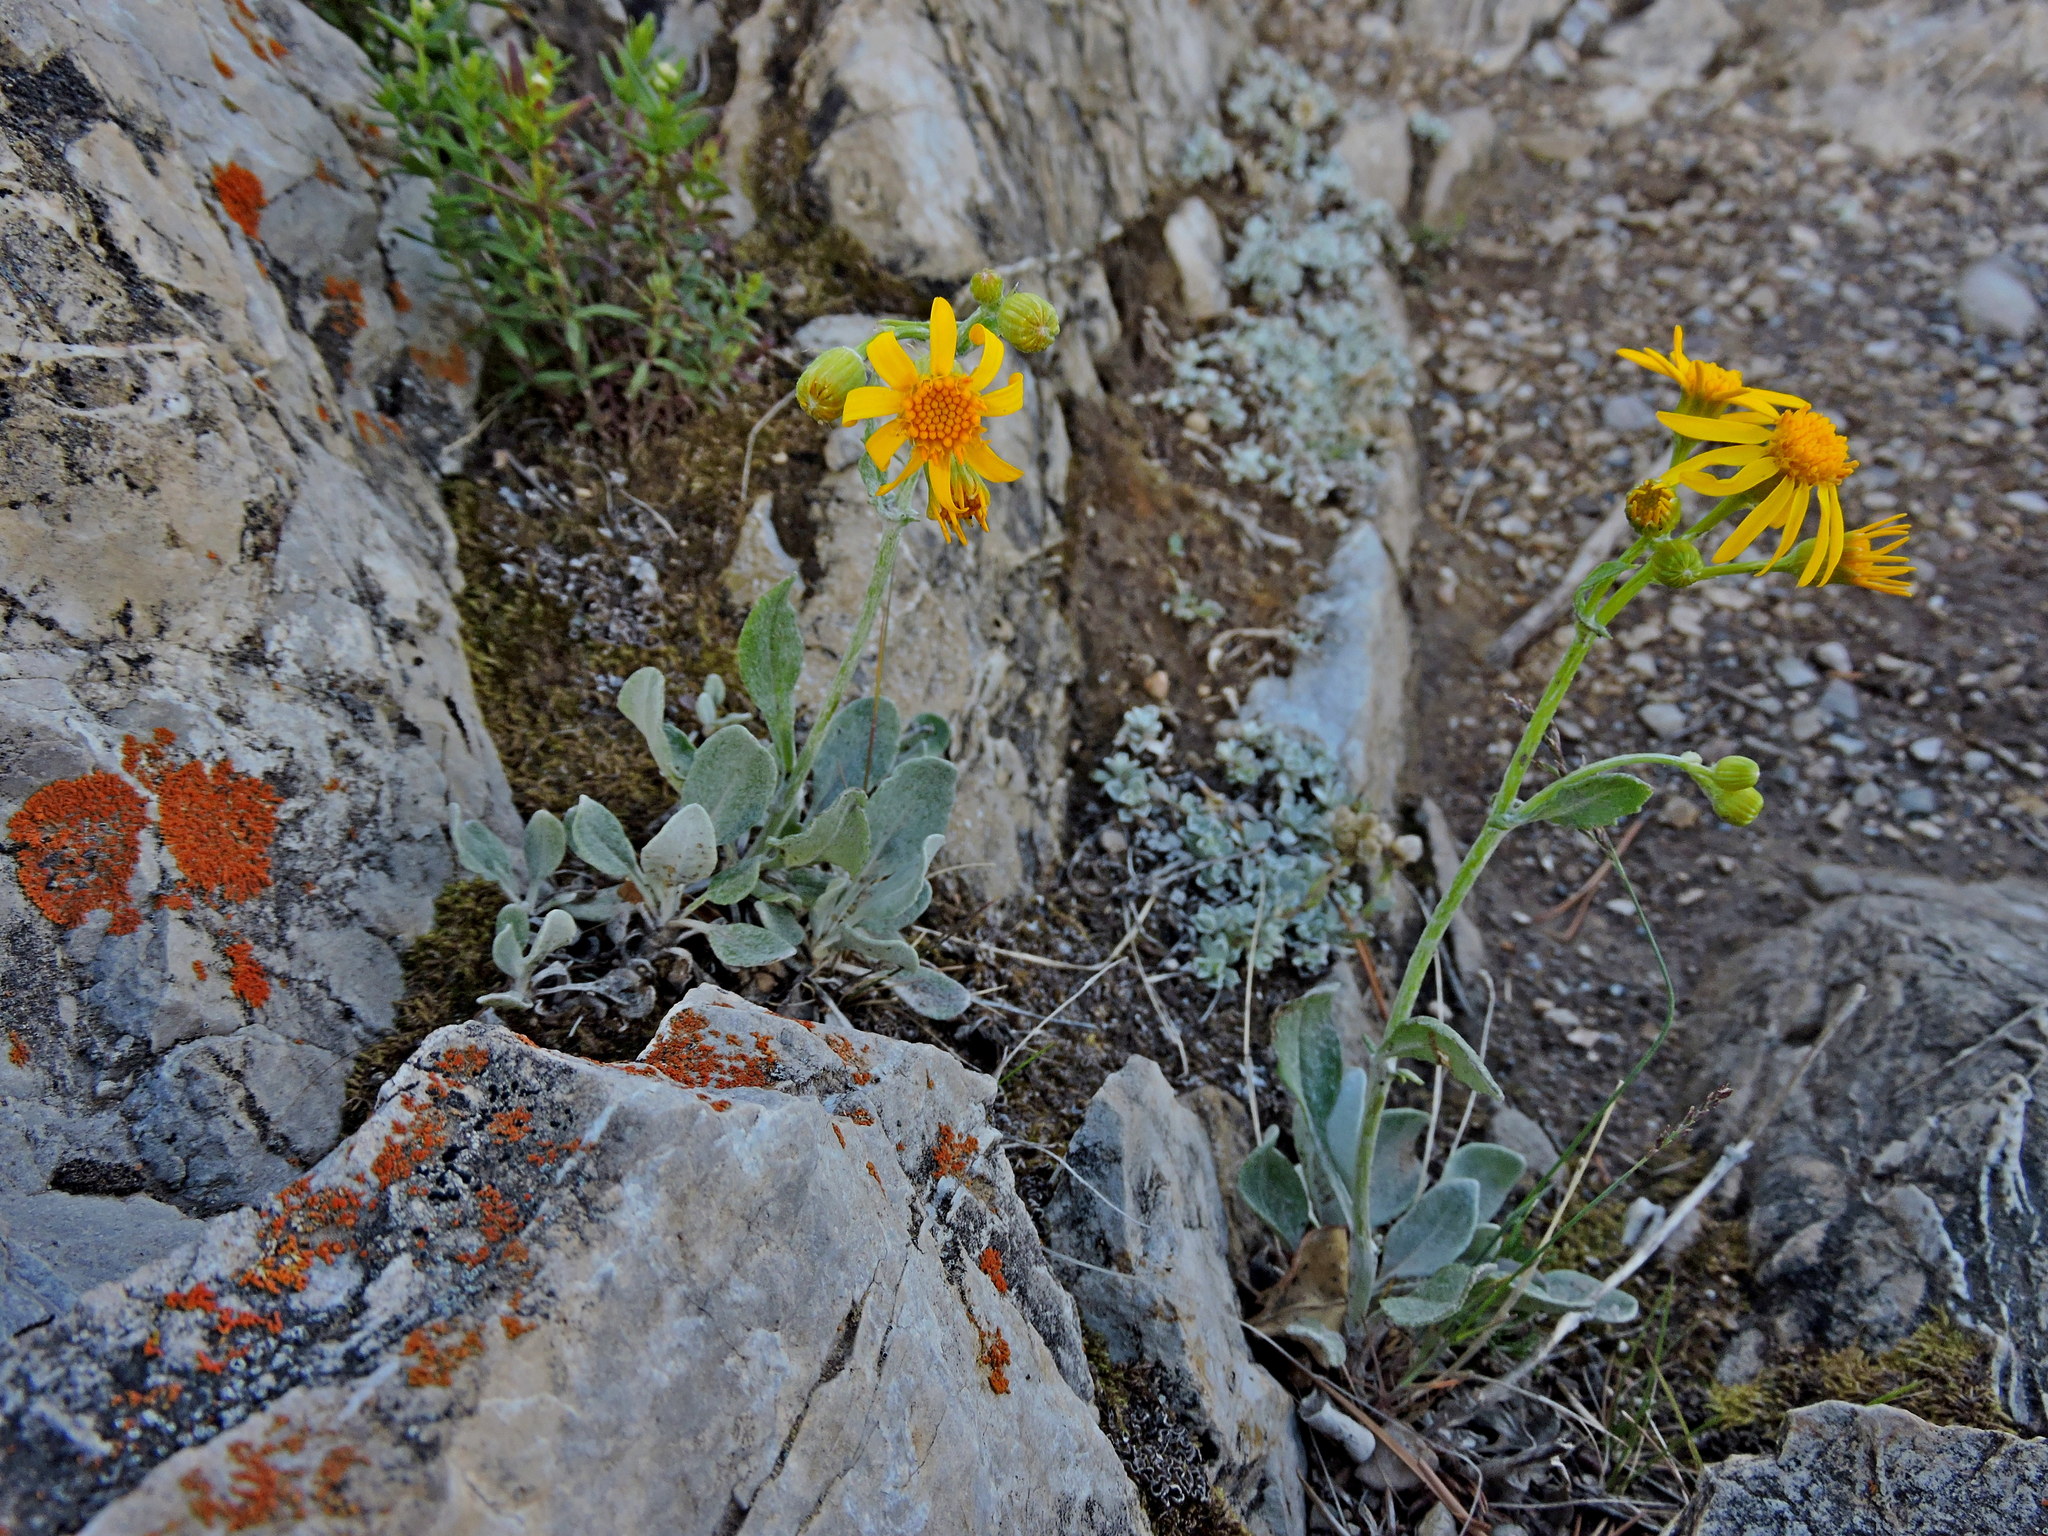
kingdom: Plantae
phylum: Tracheophyta
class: Magnoliopsida
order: Asterales
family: Asteraceae
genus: Packera
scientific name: Packera cana
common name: Woolly groundsel
